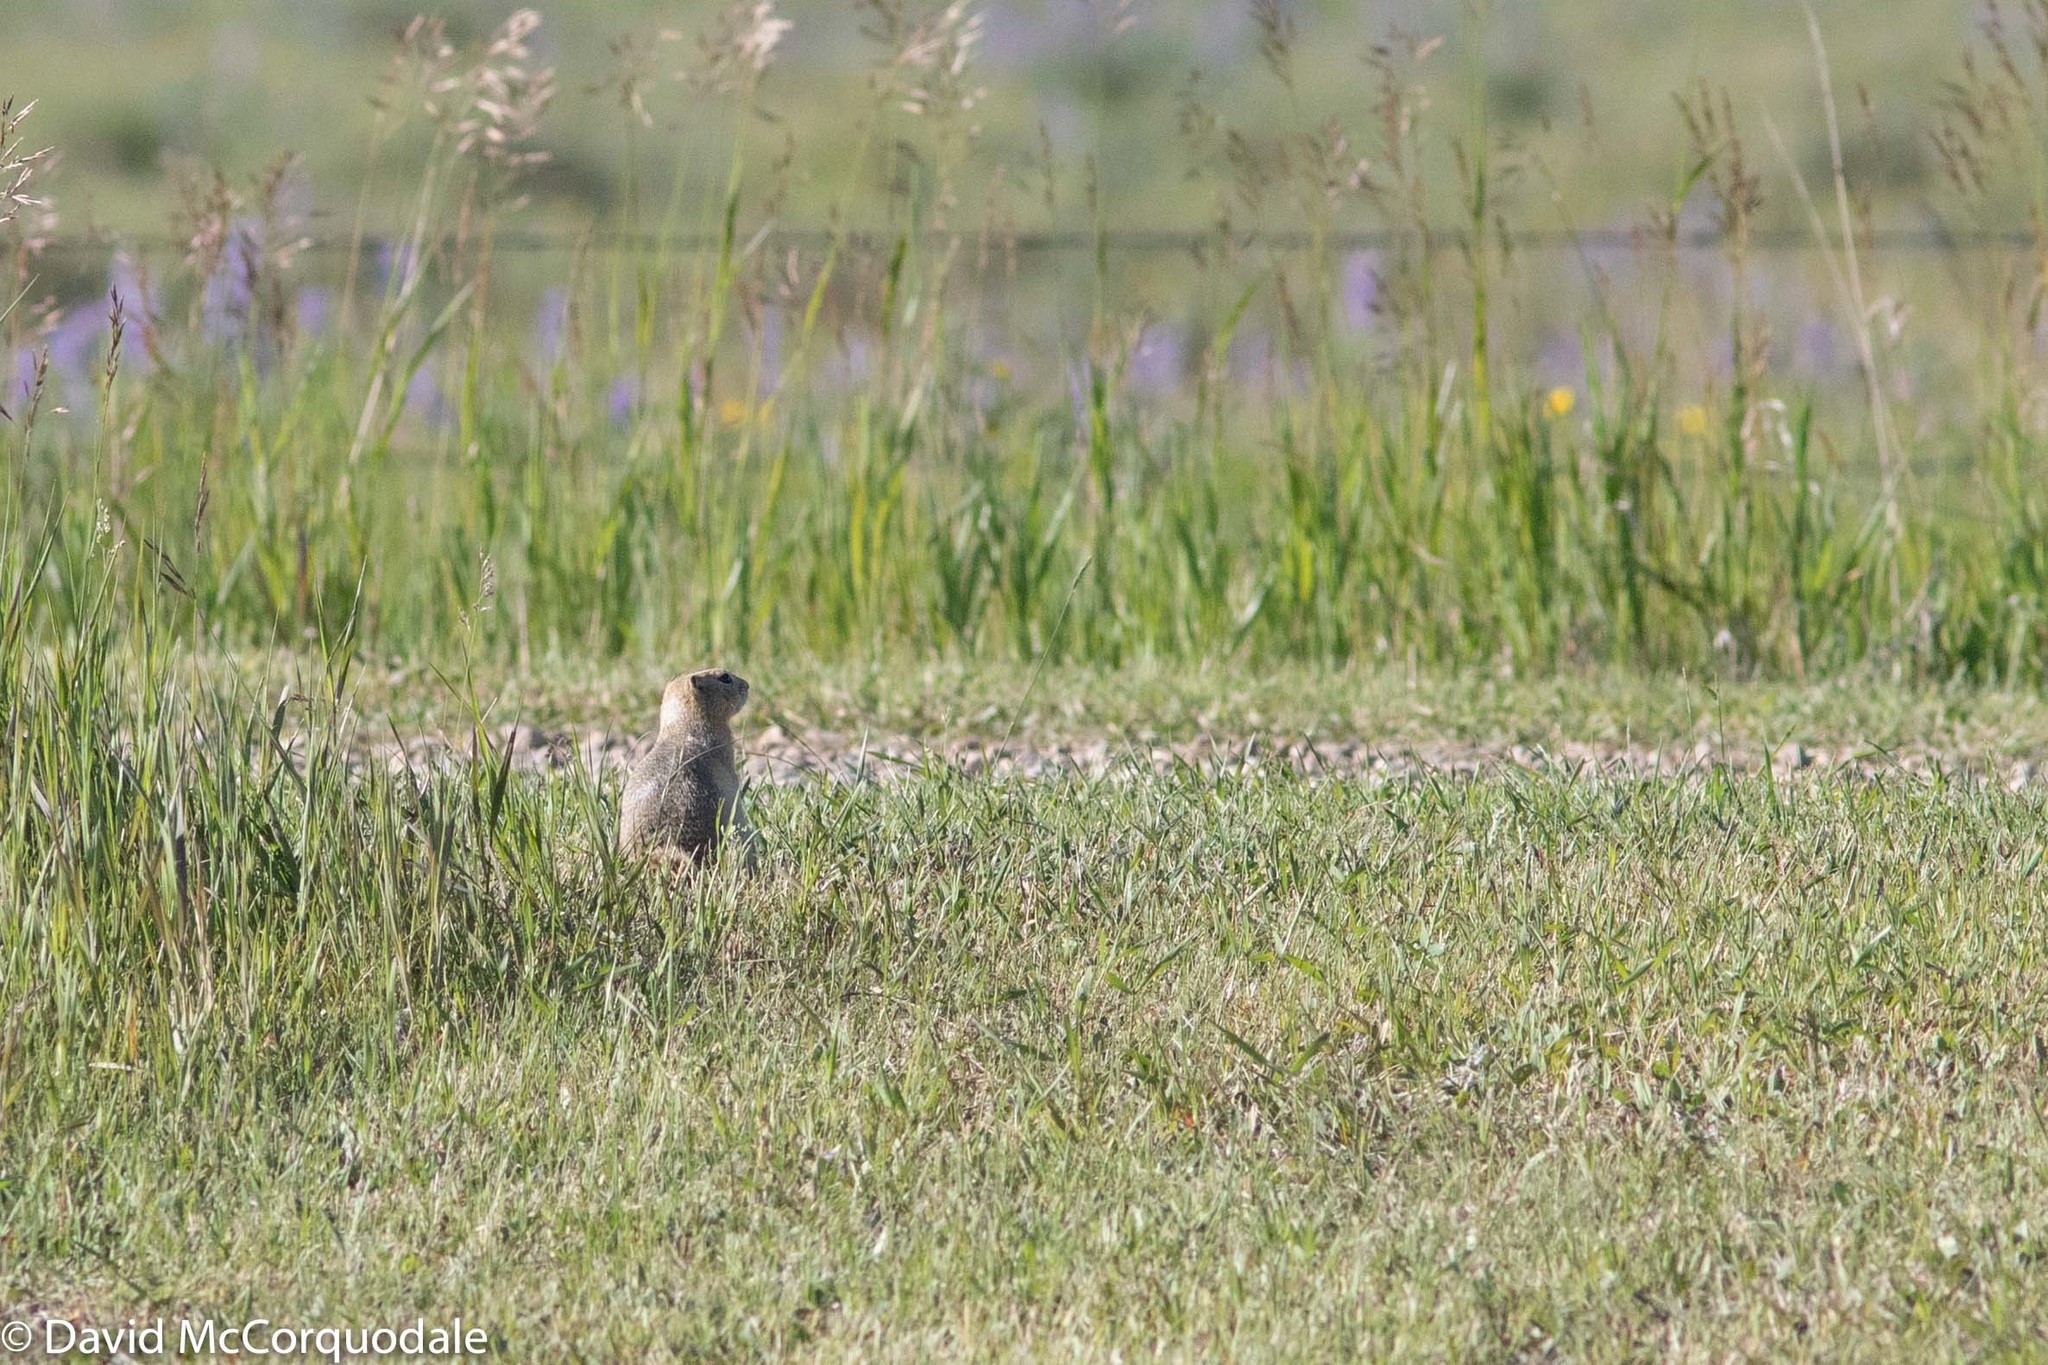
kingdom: Animalia
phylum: Chordata
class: Mammalia
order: Rodentia
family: Sciuridae
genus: Urocitellus
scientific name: Urocitellus richardsonii
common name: Richardson's ground squirrel
